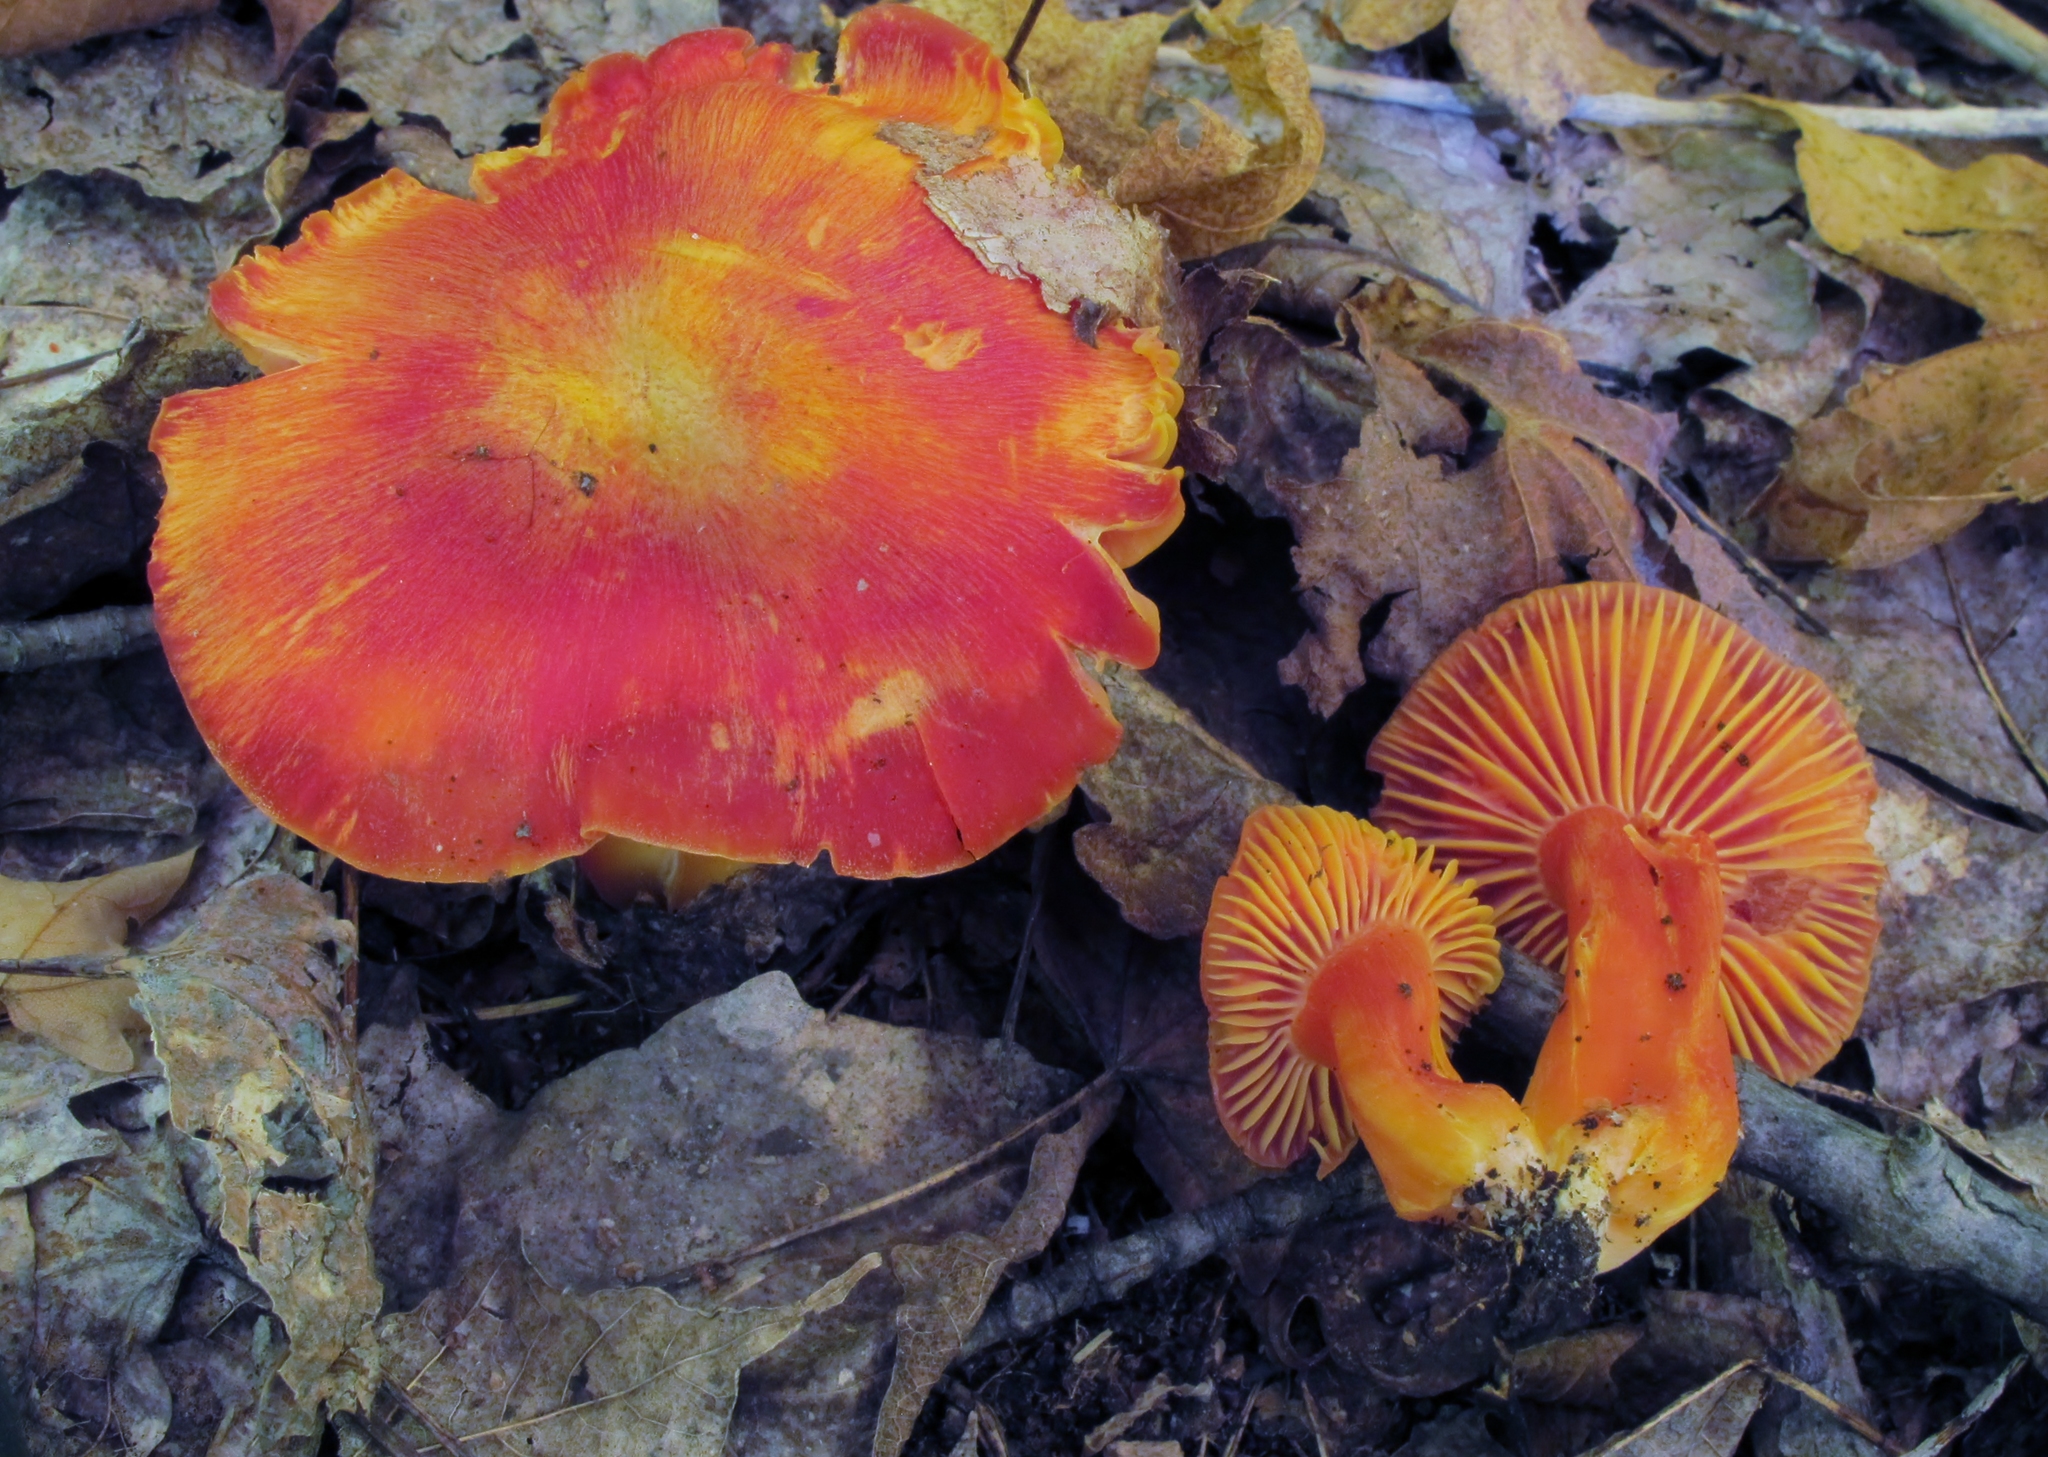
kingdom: Fungi
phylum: Basidiomycota
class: Agaricomycetes
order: Agaricales
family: Hygrophoraceae
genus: Hygrocybe
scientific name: Hygrocybe punicea
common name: Crimson waxcap
